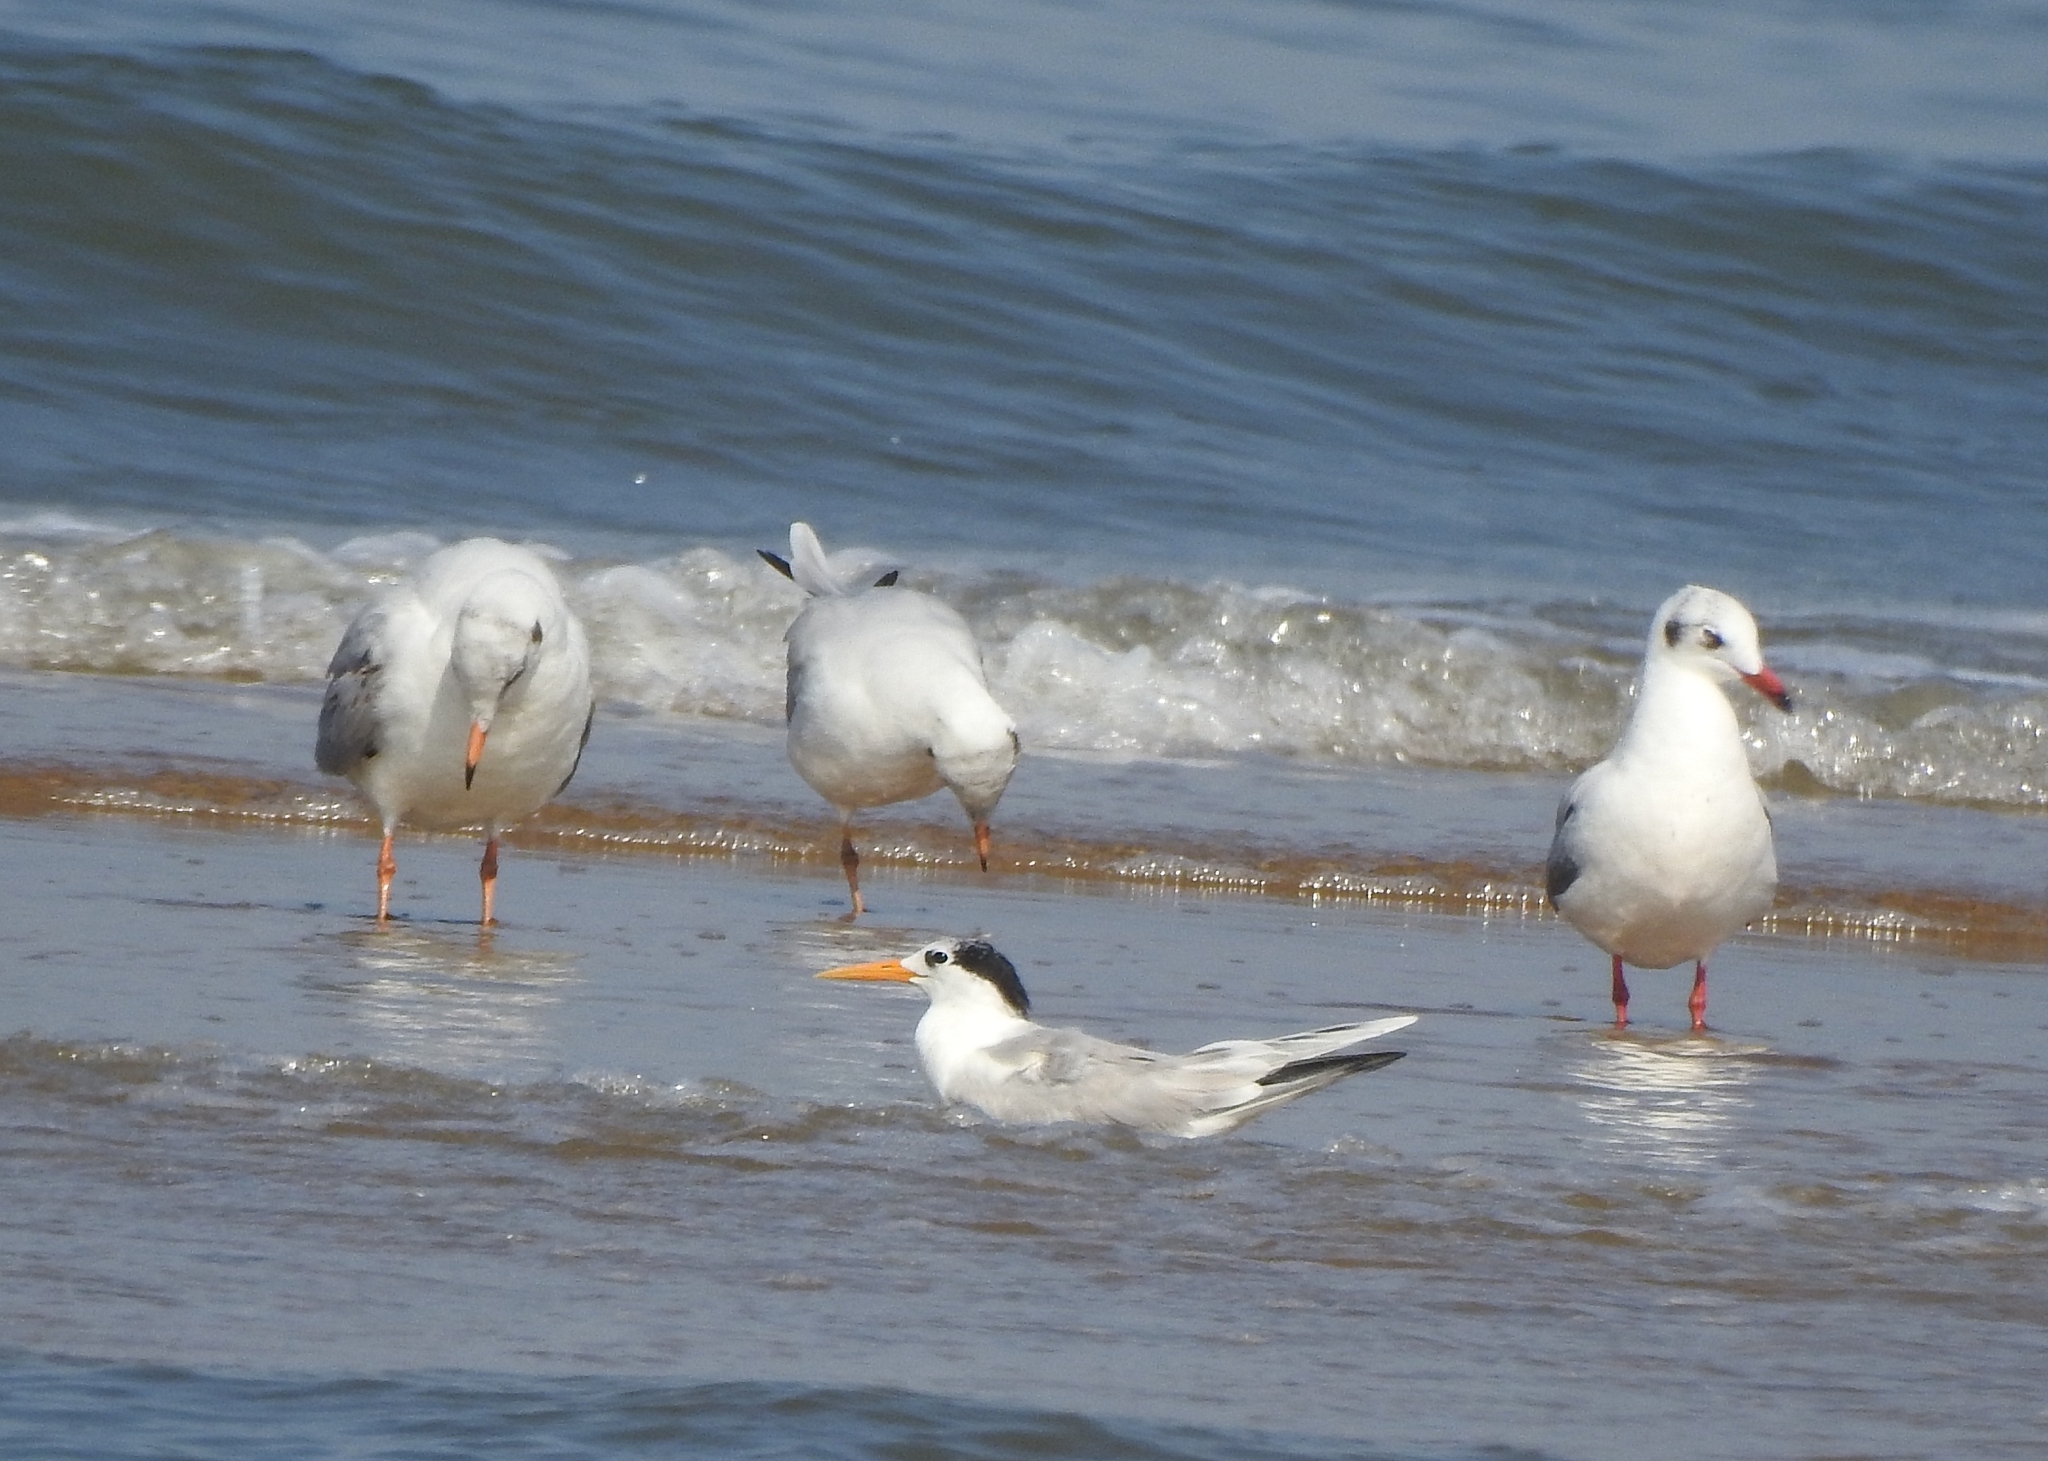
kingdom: Animalia
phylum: Chordata
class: Aves
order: Charadriiformes
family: Laridae
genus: Thalasseus
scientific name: Thalasseus bengalensis
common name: Lesser crested tern
